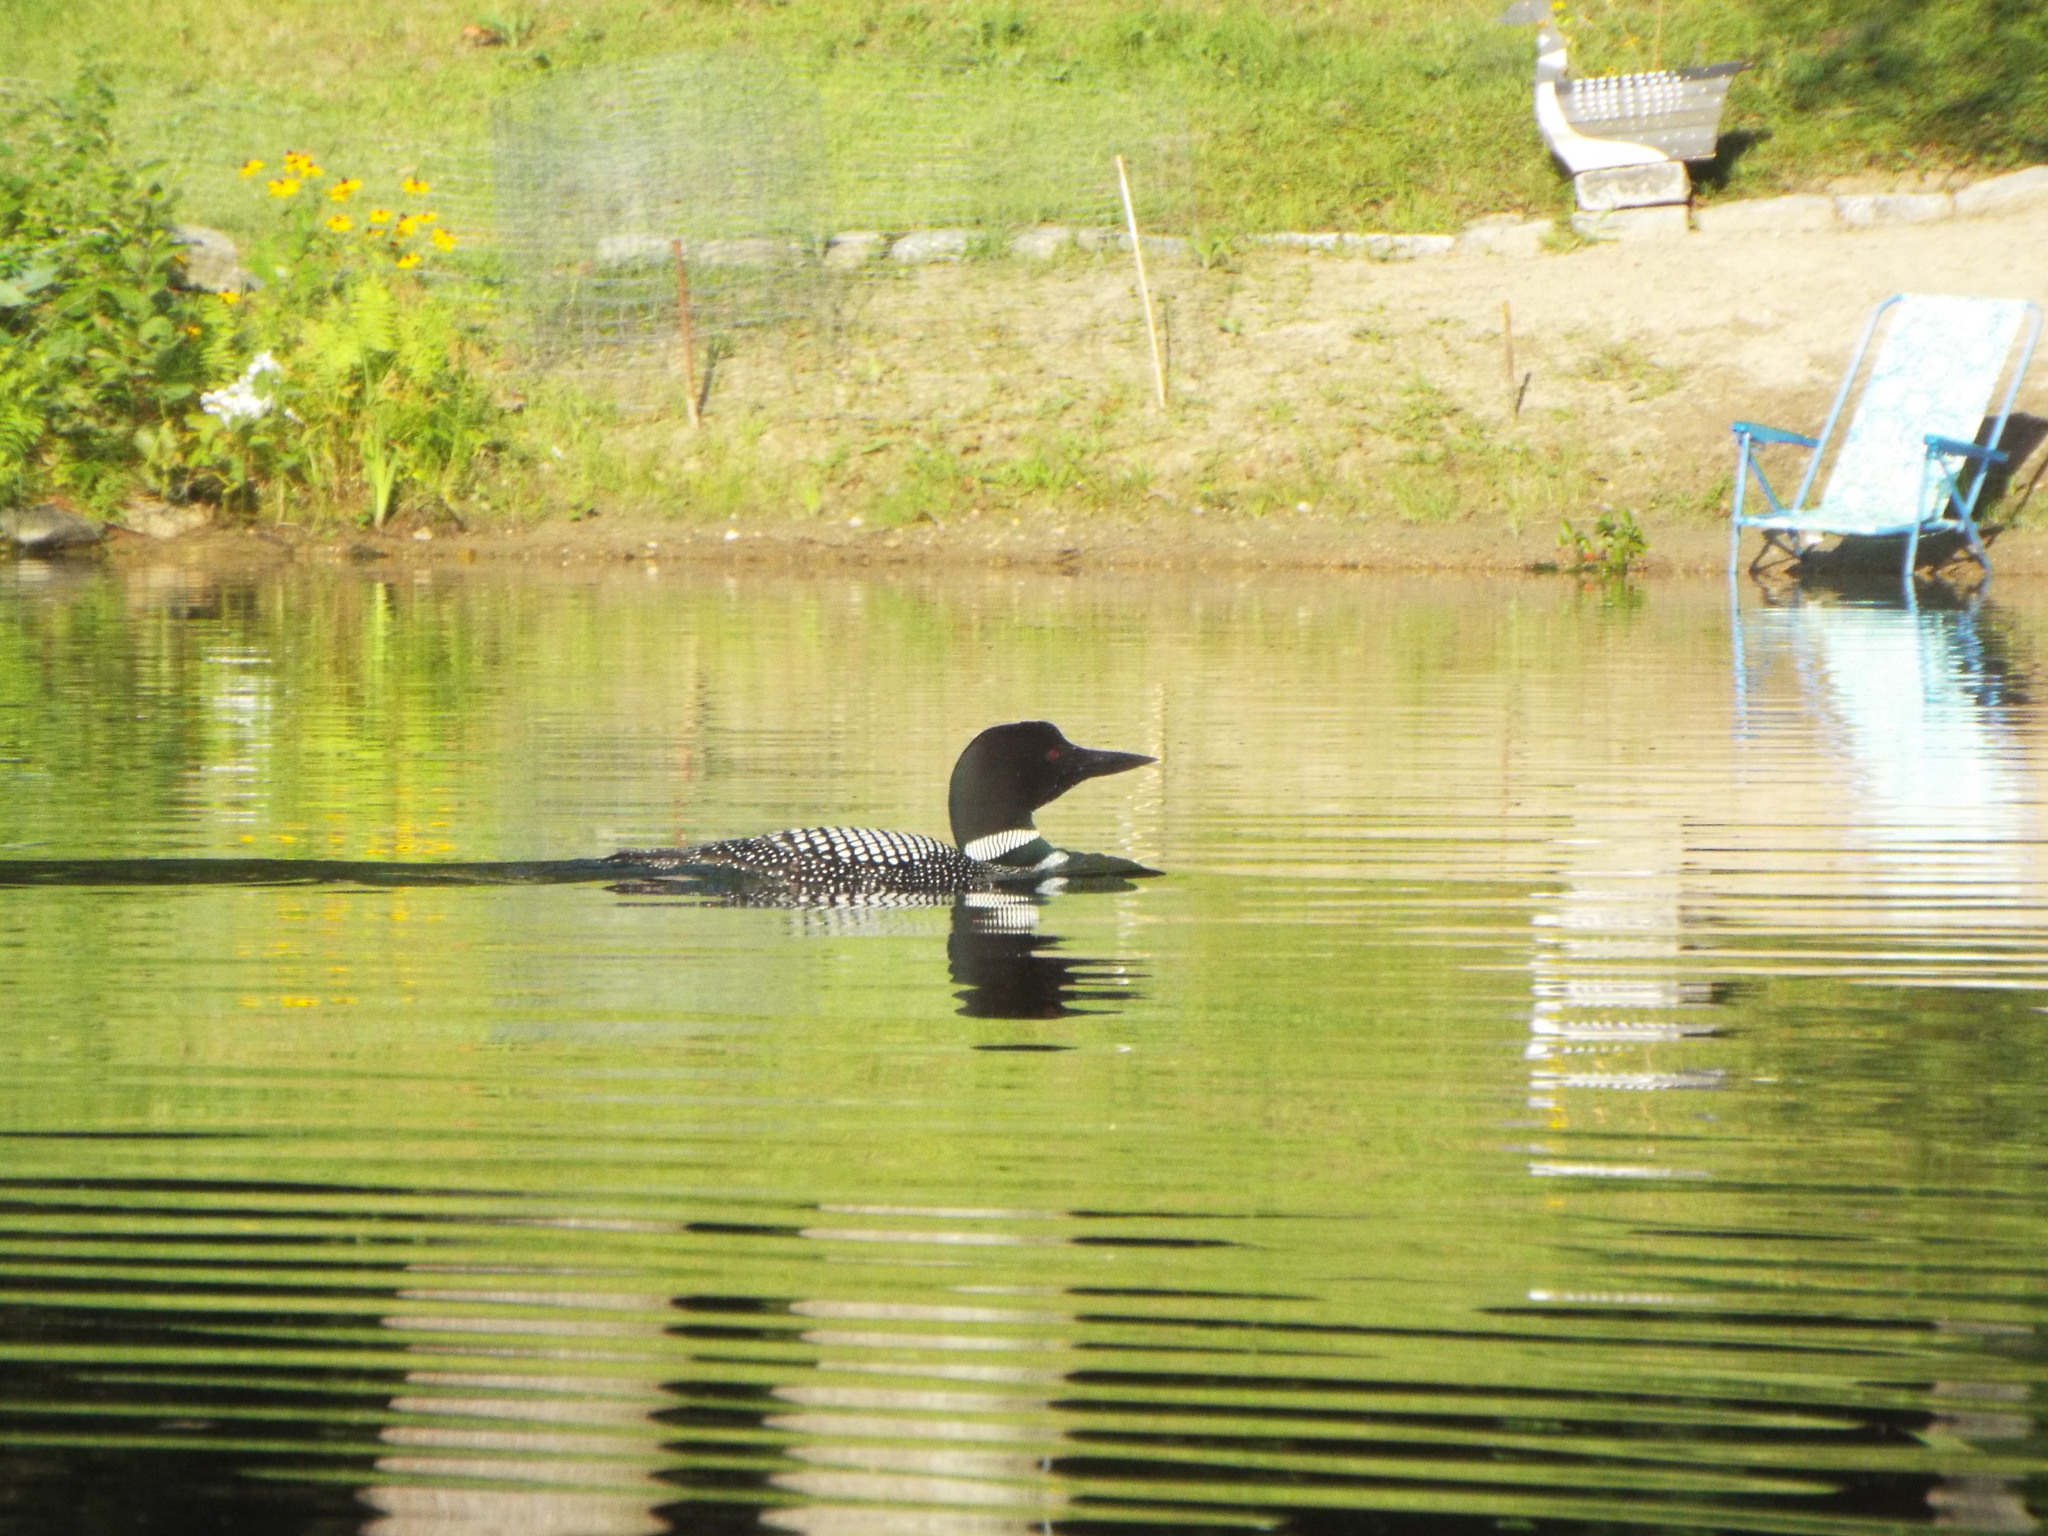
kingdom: Animalia
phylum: Chordata
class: Aves
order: Gaviiformes
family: Gaviidae
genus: Gavia
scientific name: Gavia immer
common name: Common loon
